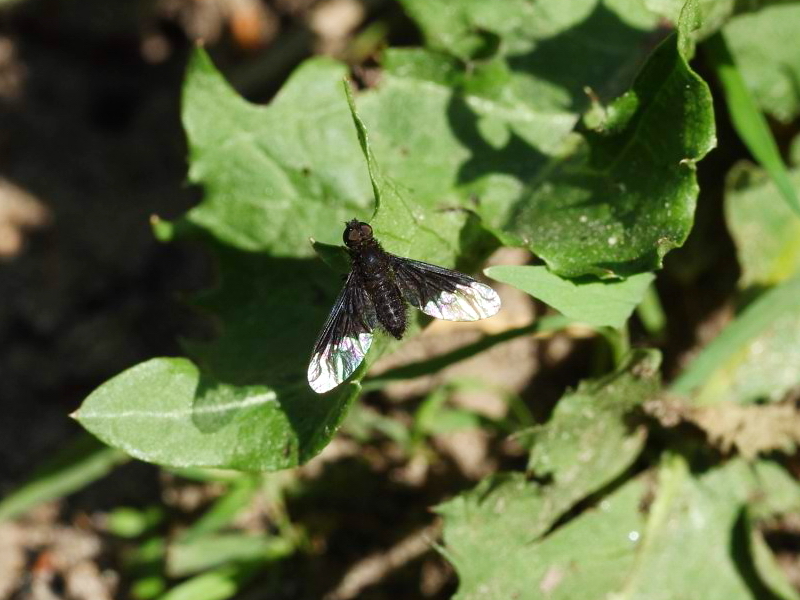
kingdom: Animalia
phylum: Arthropoda
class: Insecta
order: Diptera
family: Bombyliidae
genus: Hemipenthes
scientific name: Hemipenthes morio
